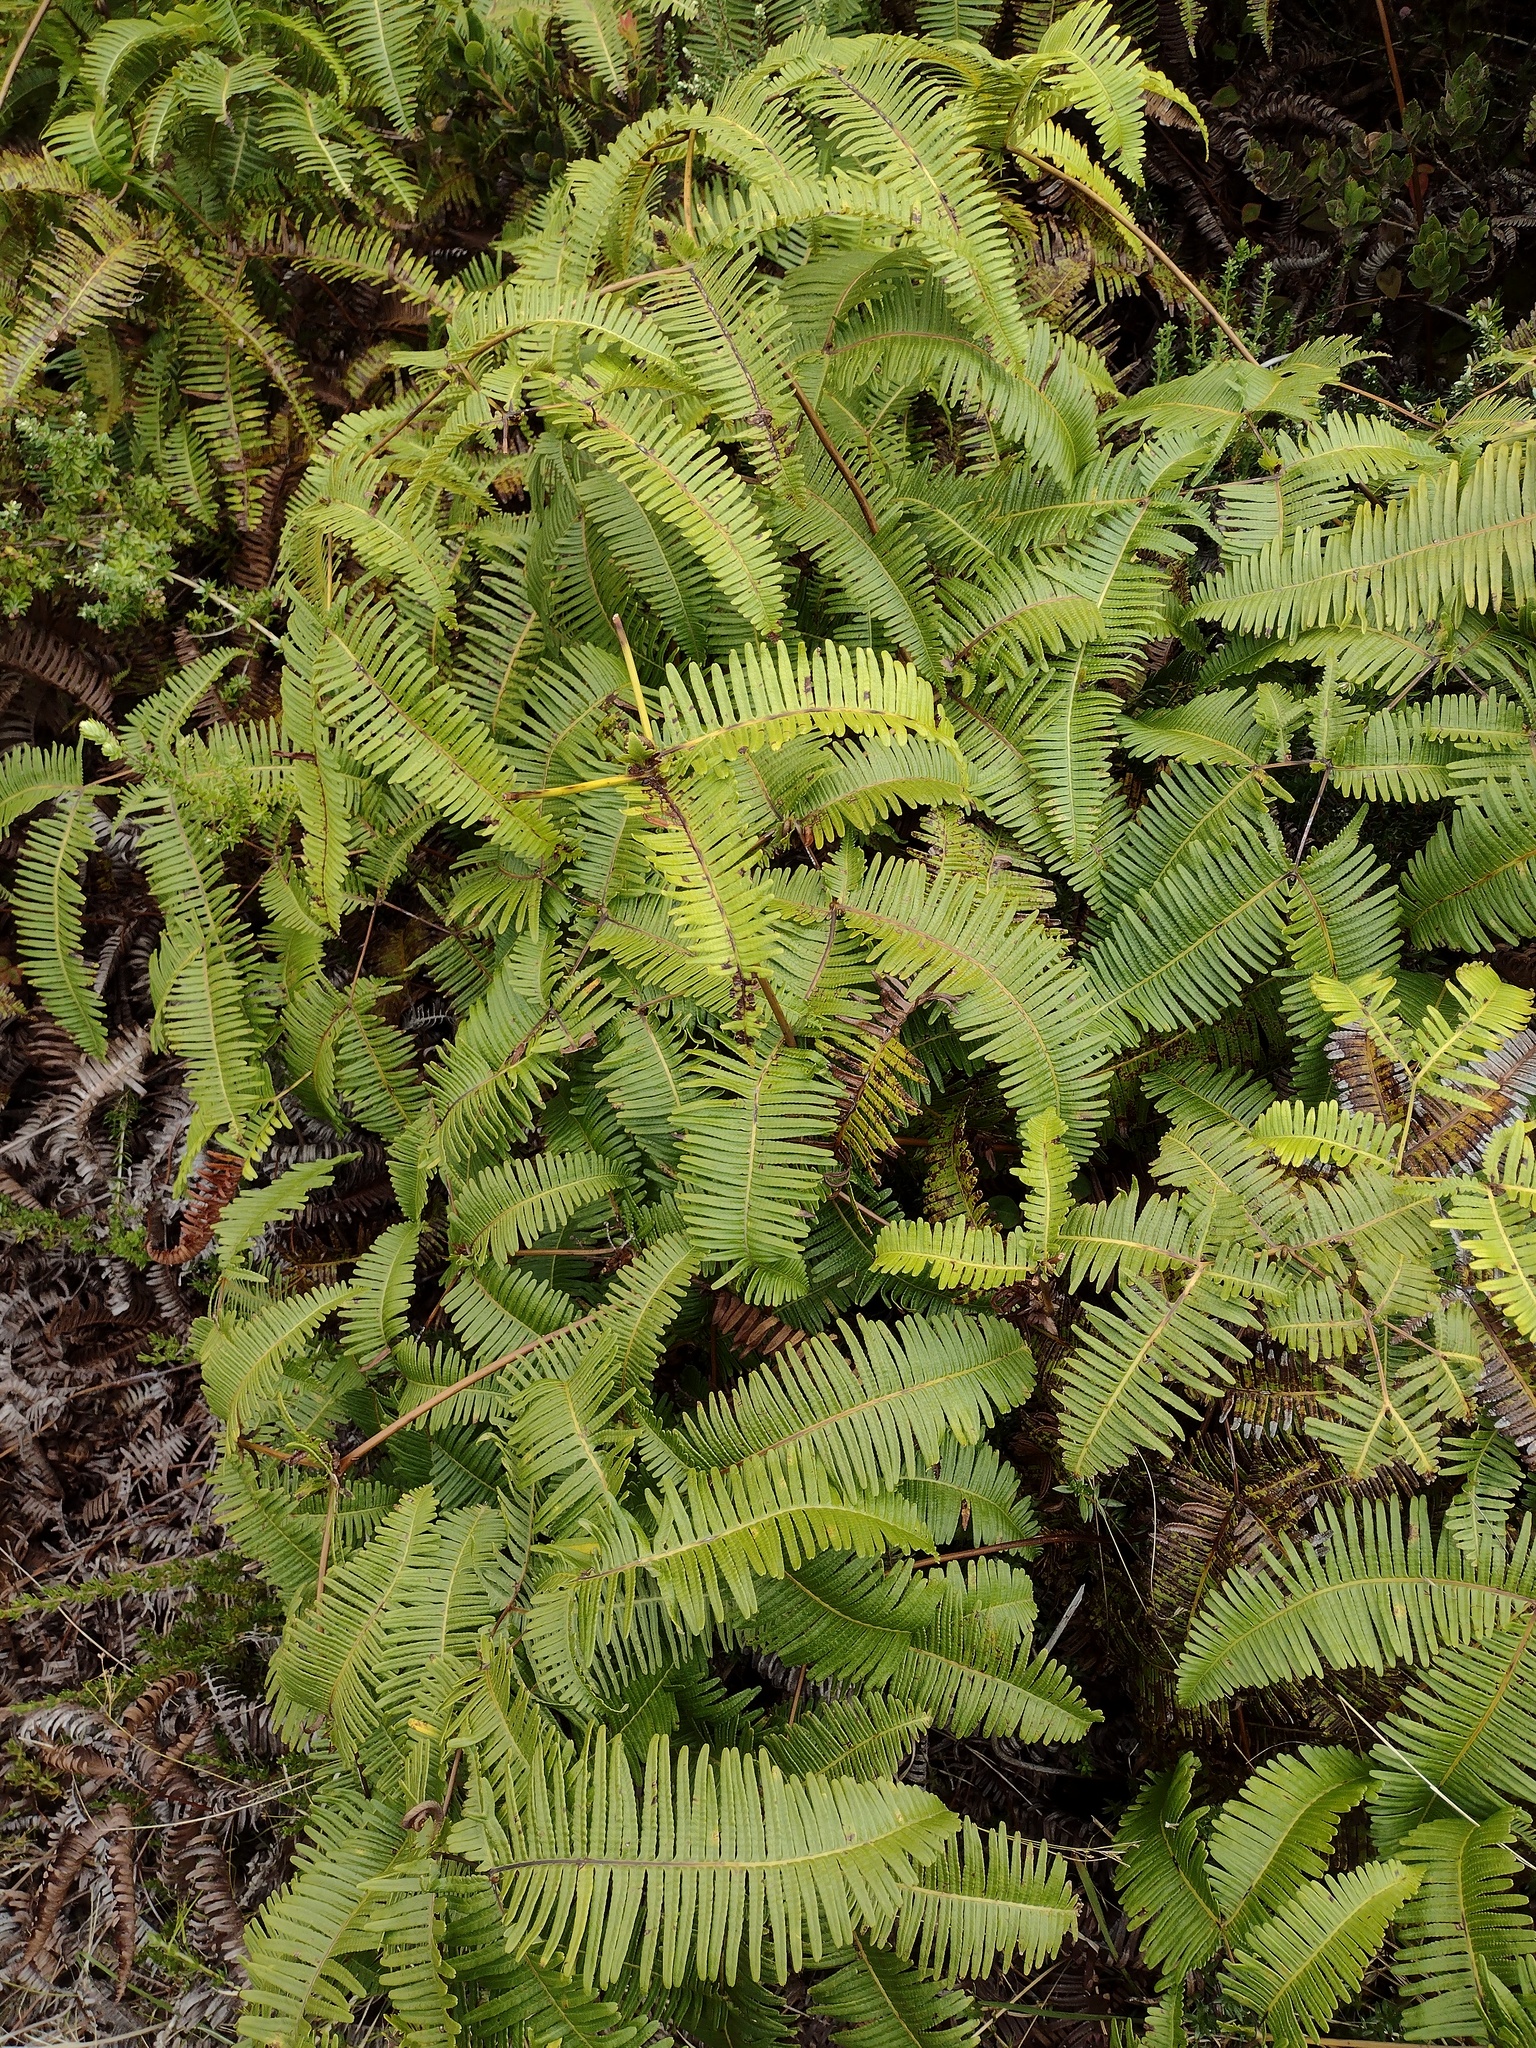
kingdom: Plantae
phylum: Tracheophyta
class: Polypodiopsida
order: Gleicheniales
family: Gleicheniaceae
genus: Dicranopteris
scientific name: Dicranopteris linearis
